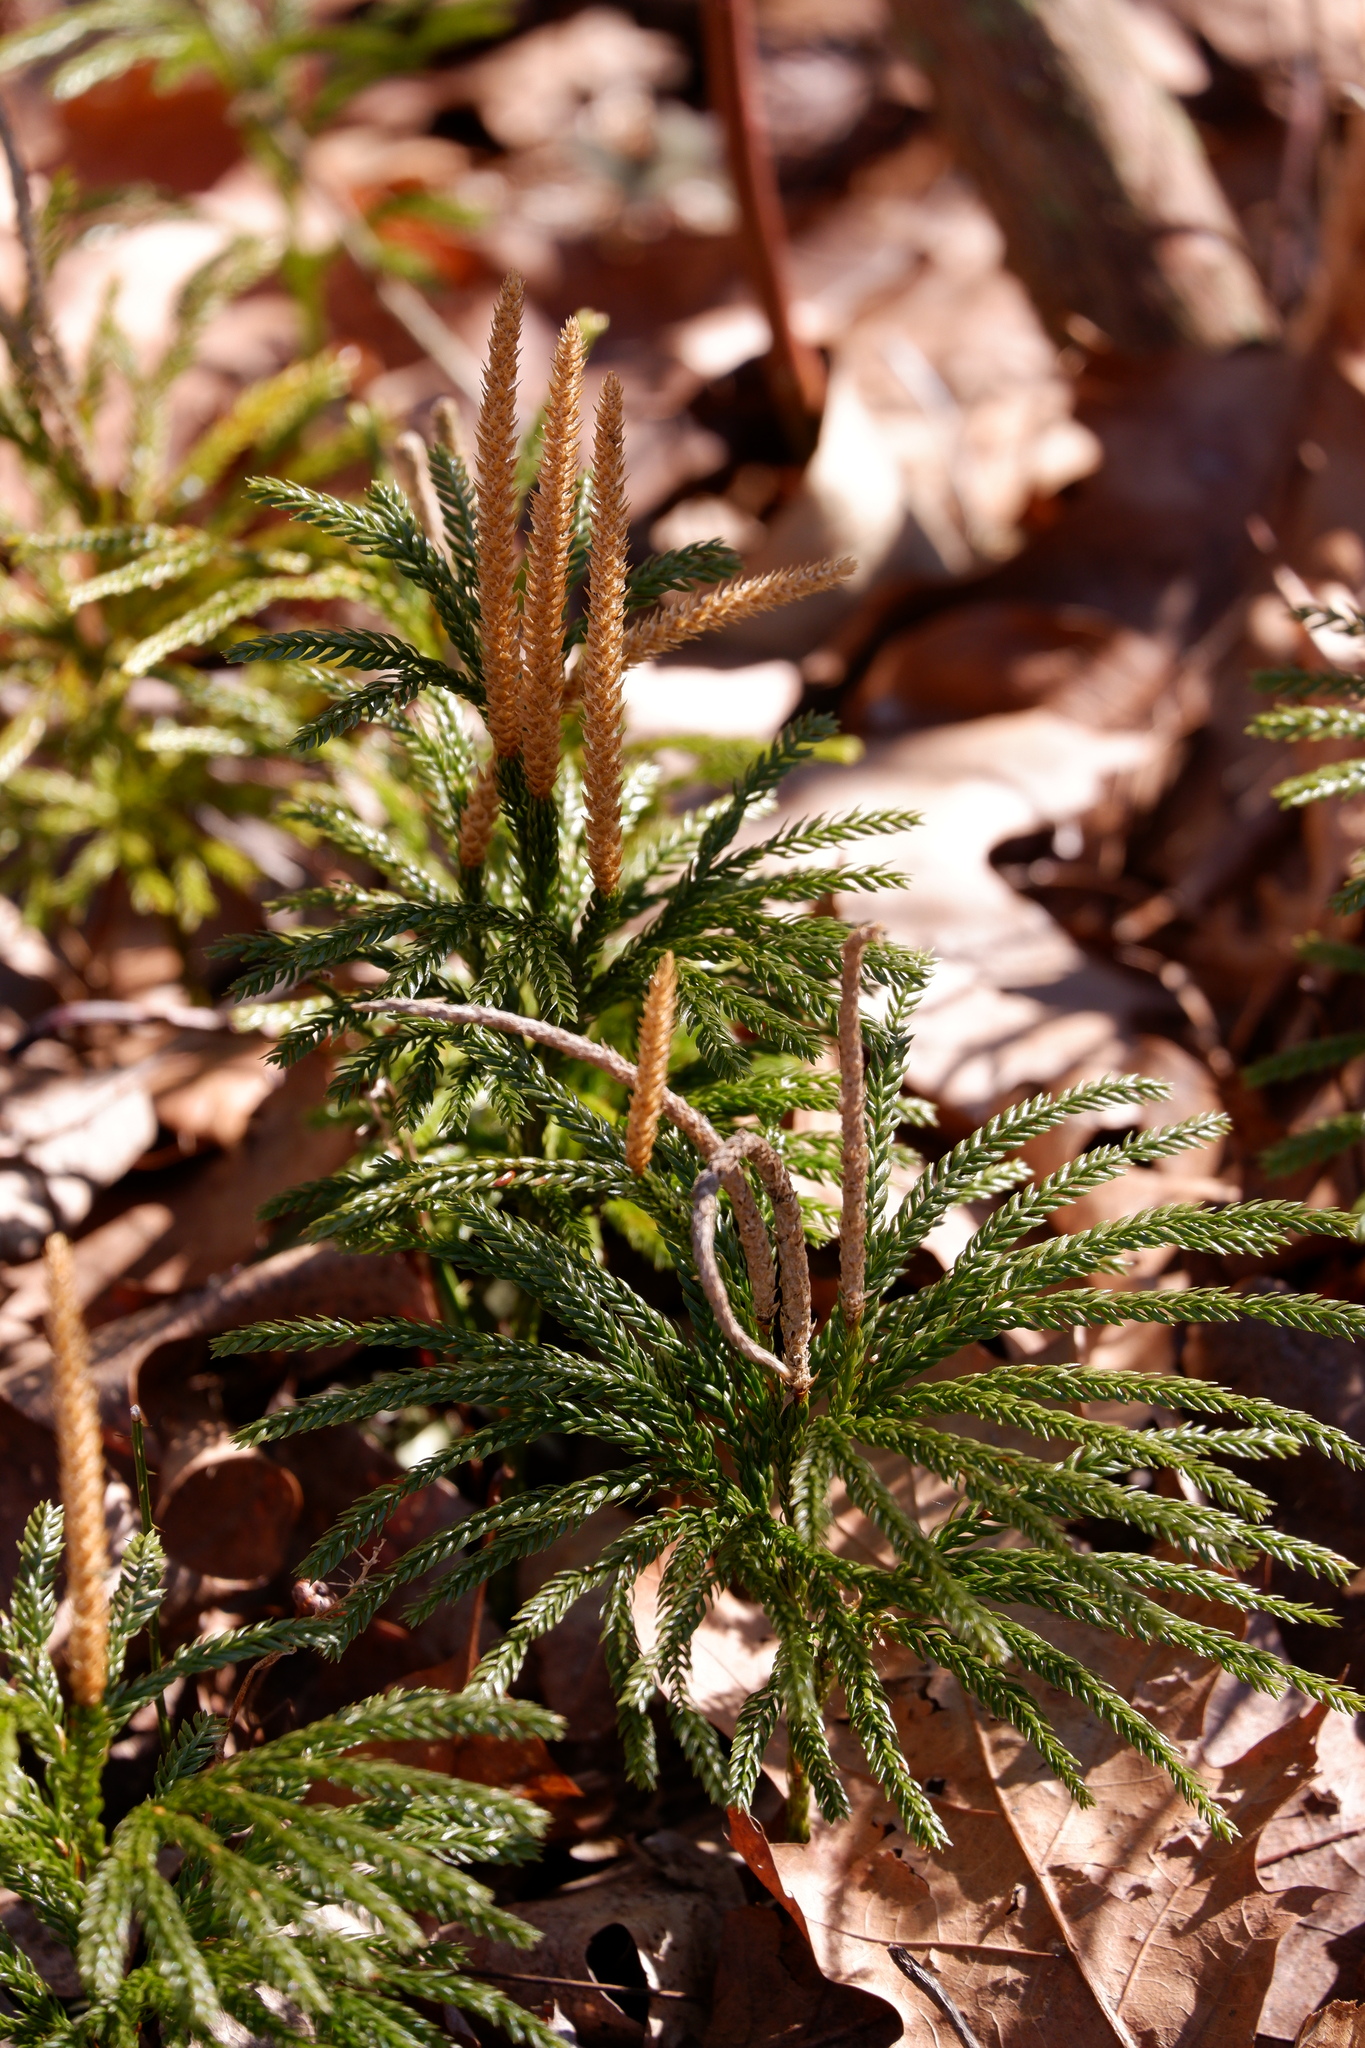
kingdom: Plantae
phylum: Tracheophyta
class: Lycopodiopsida
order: Lycopodiales
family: Lycopodiaceae
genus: Dendrolycopodium
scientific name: Dendrolycopodium obscurum
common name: Common ground-pine
